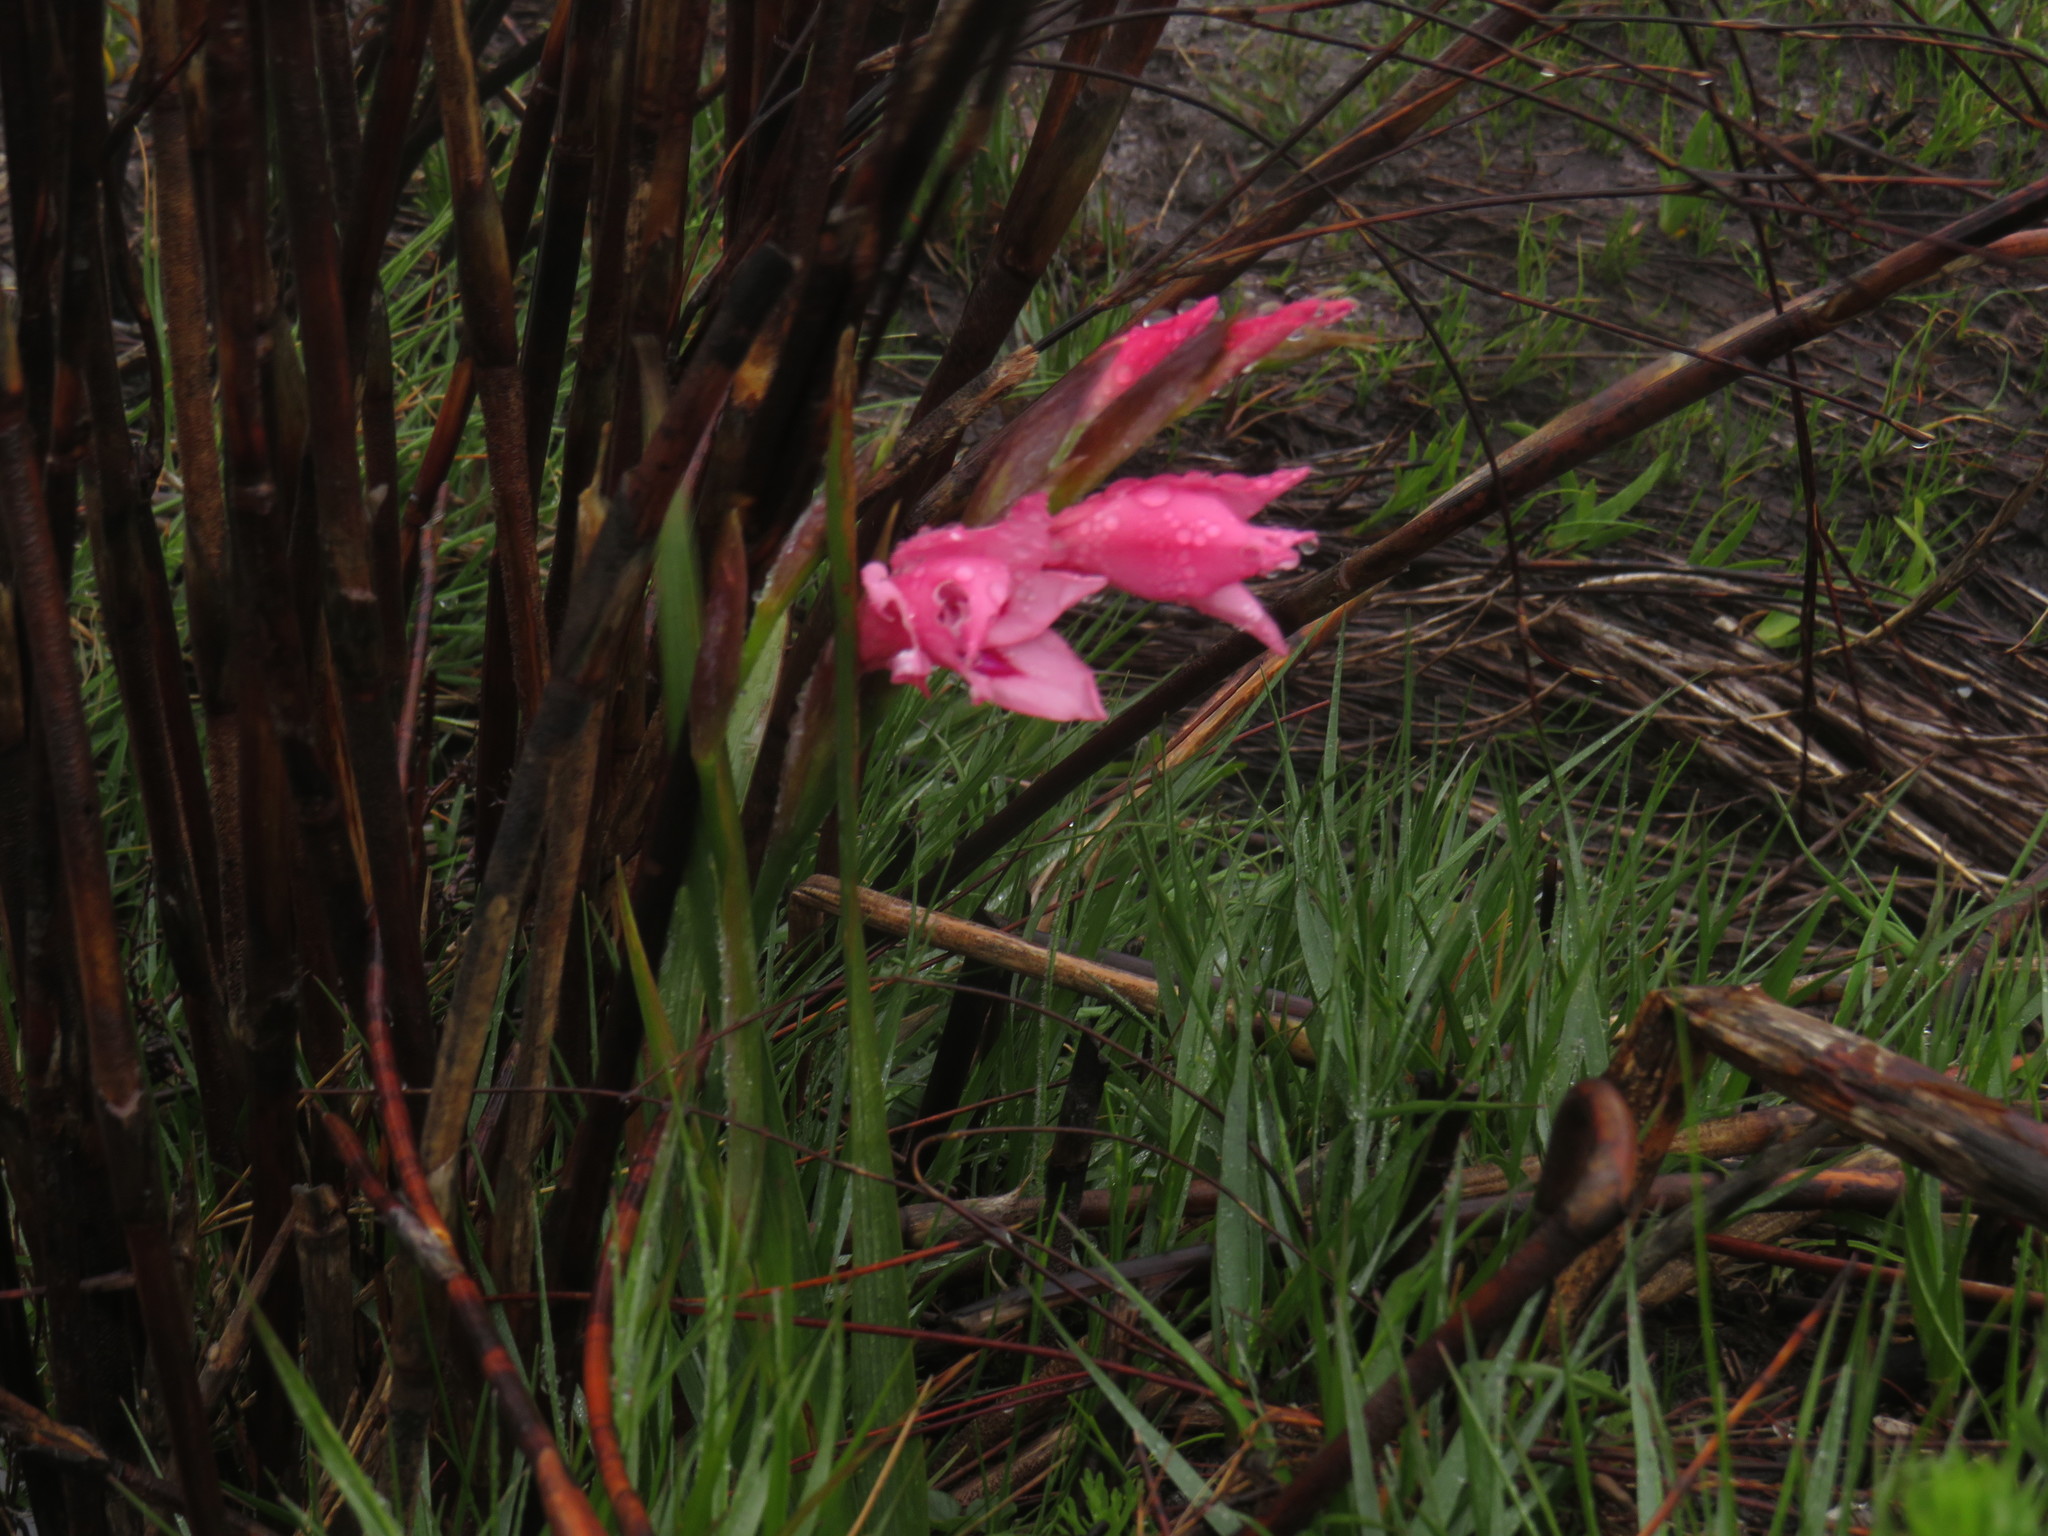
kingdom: Plantae
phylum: Tracheophyta
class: Liliopsida
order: Asparagales
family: Iridaceae
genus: Gladiolus
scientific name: Gladiolus carneus
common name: Painted-lady
